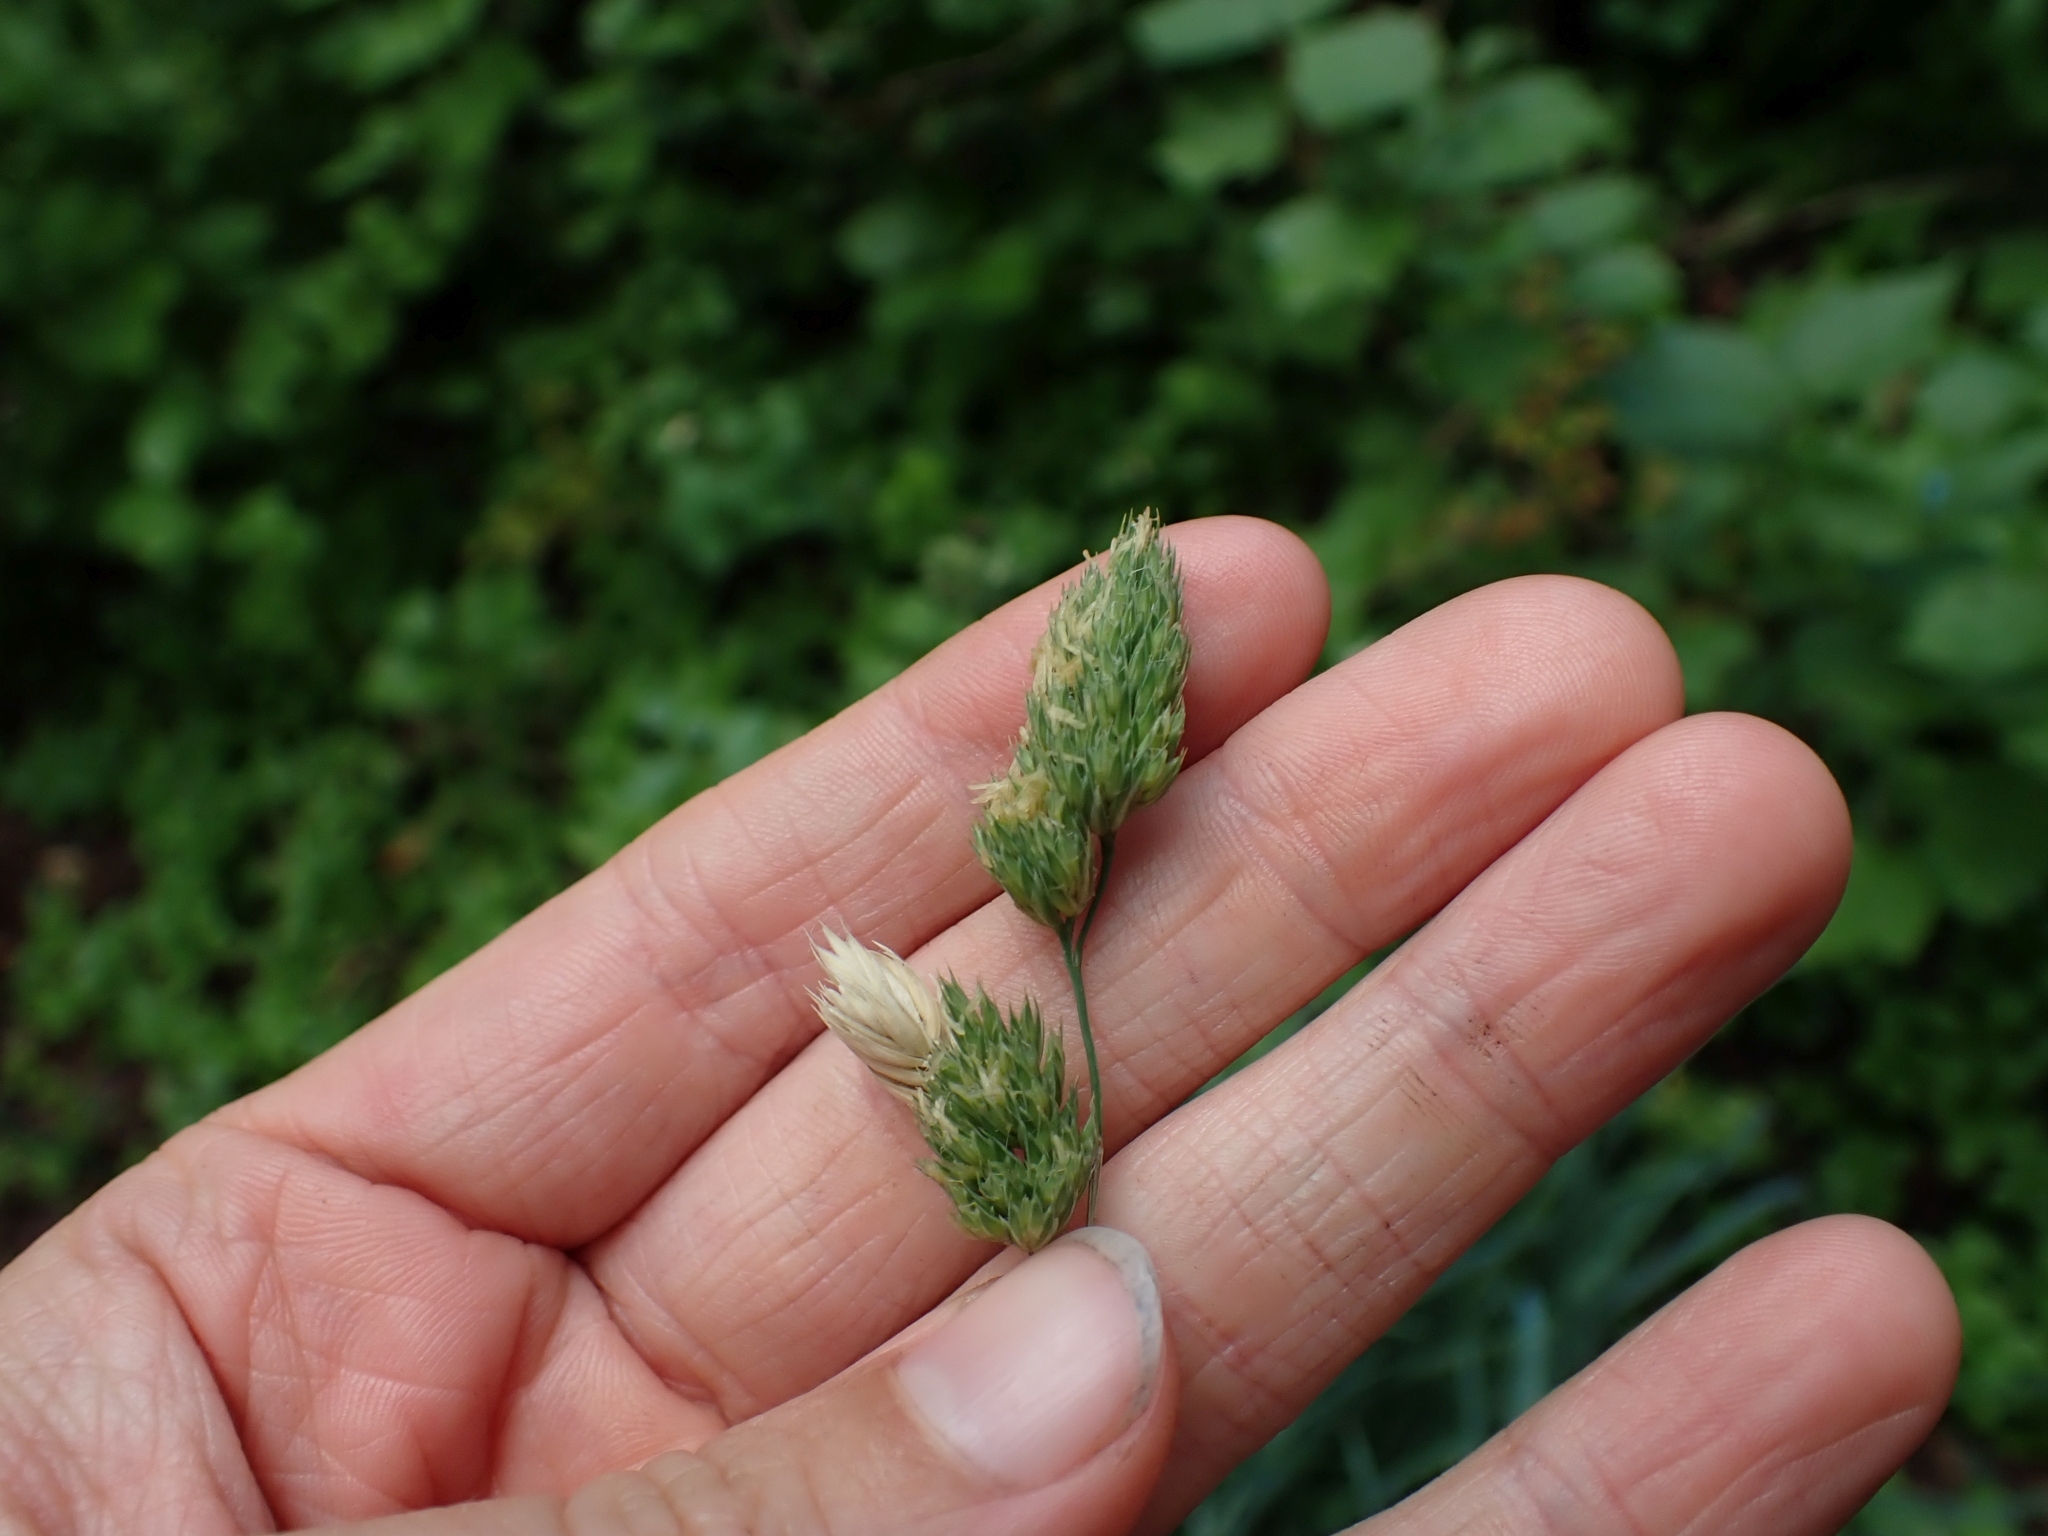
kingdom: Plantae
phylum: Tracheophyta
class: Liliopsida
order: Poales
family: Poaceae
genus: Dactylis
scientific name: Dactylis glomerata
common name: Orchardgrass
